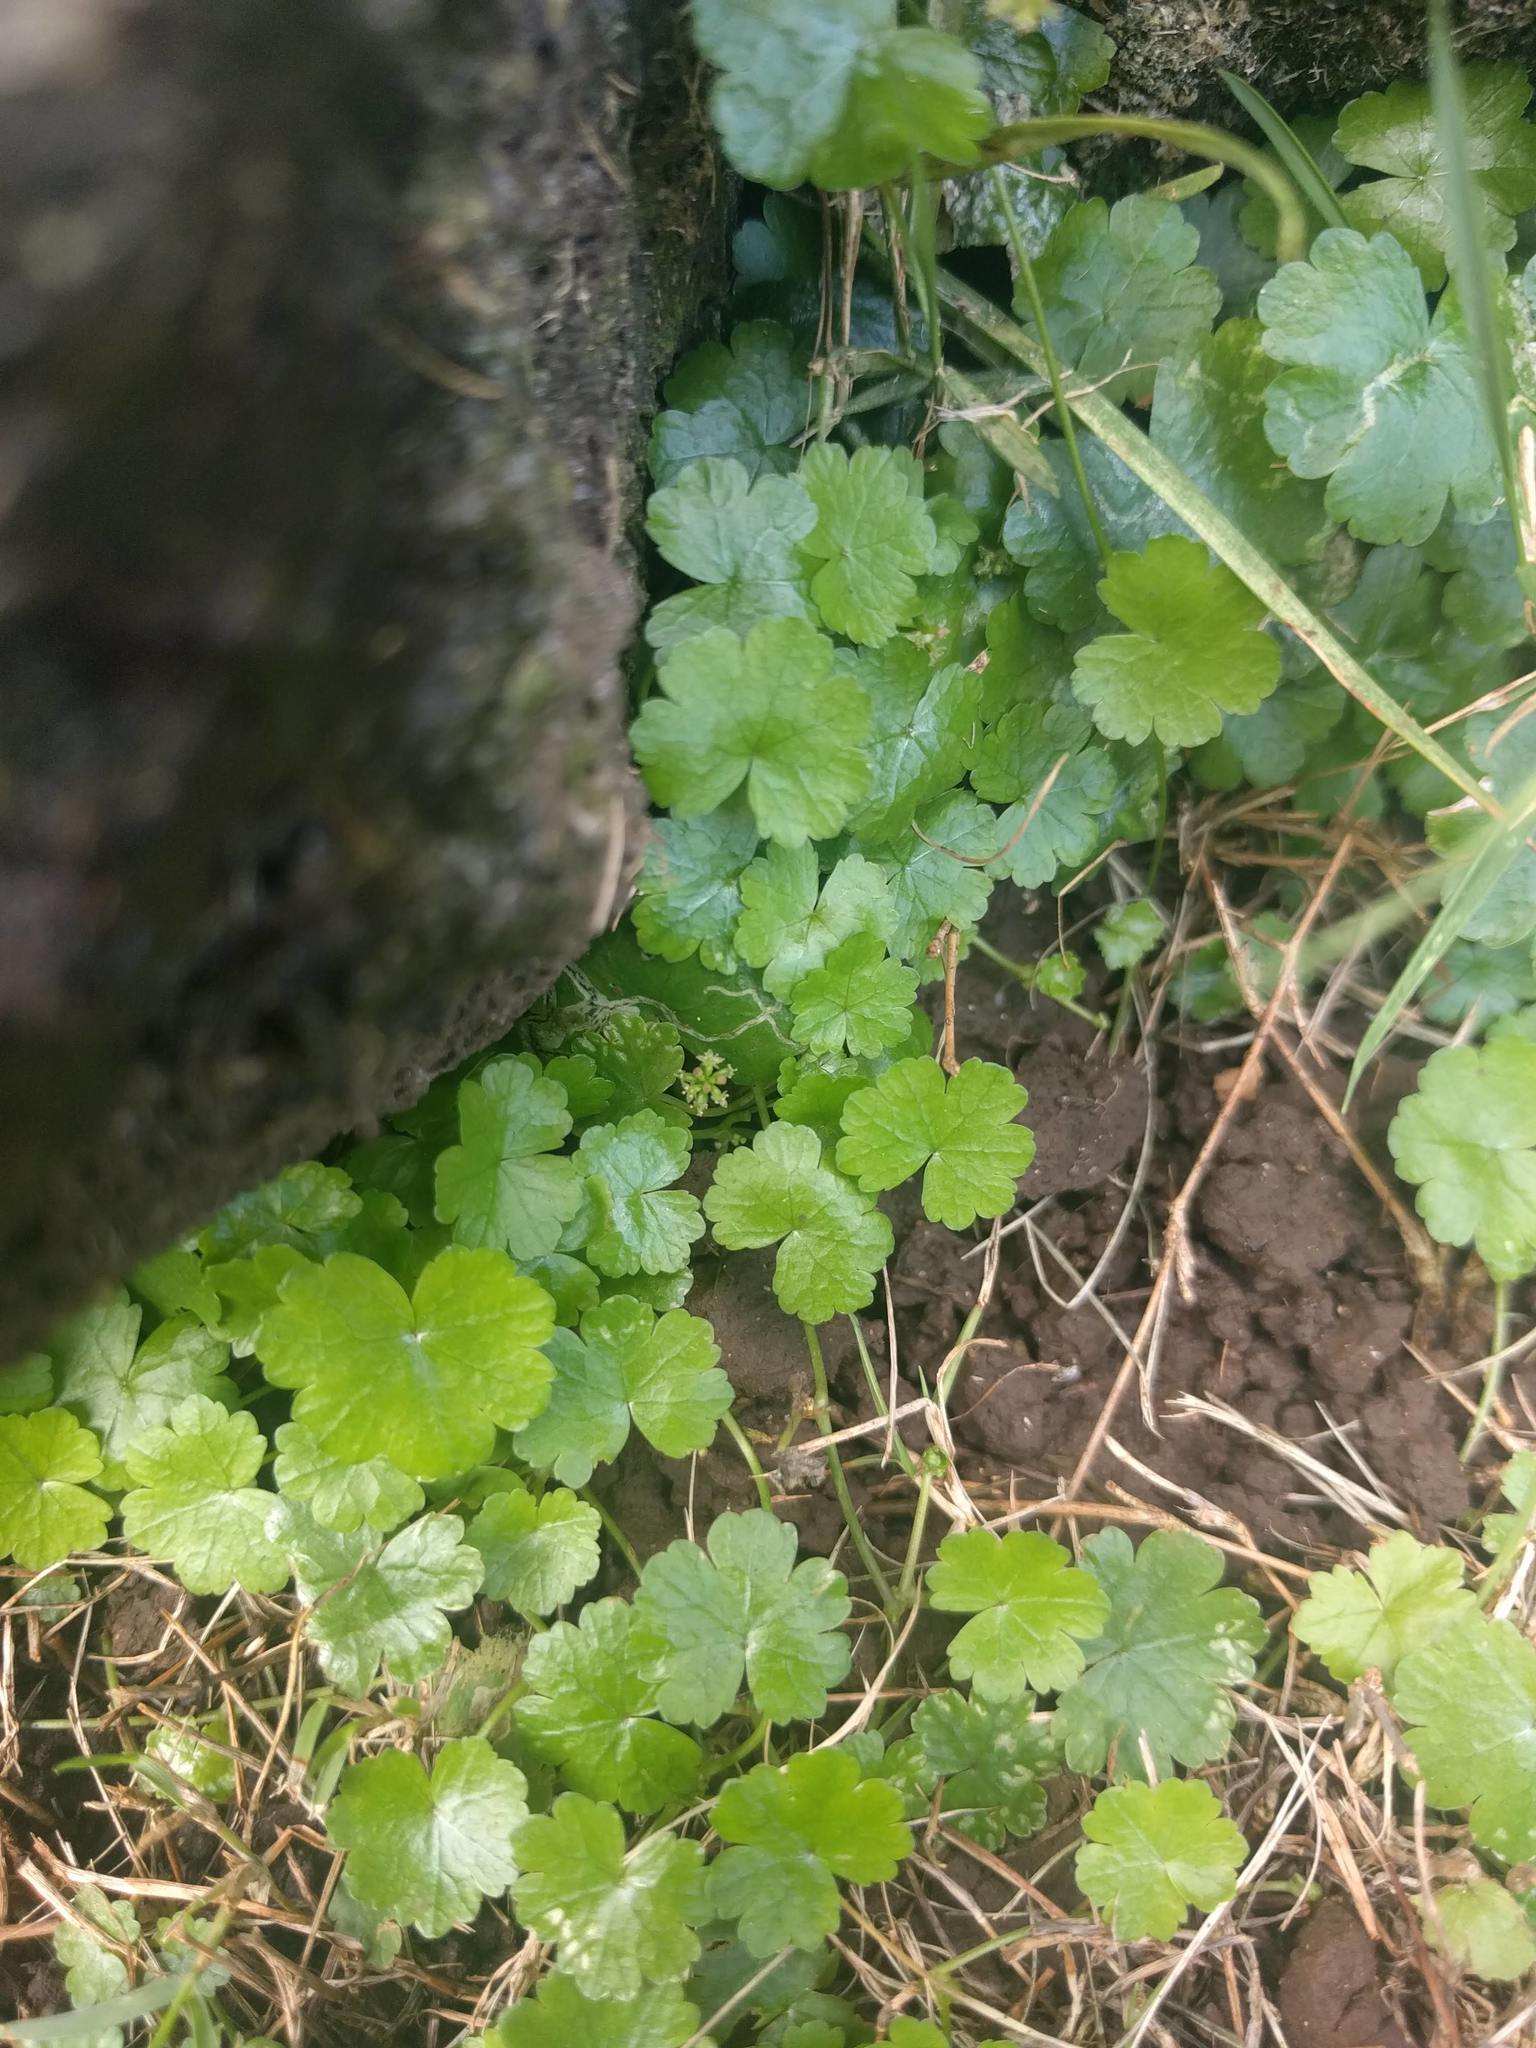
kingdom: Plantae
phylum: Tracheophyta
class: Magnoliopsida
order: Apiales
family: Araliaceae
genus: Hydrocotyle
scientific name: Hydrocotyle sibthorpioides
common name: Lawn marshpennywort
